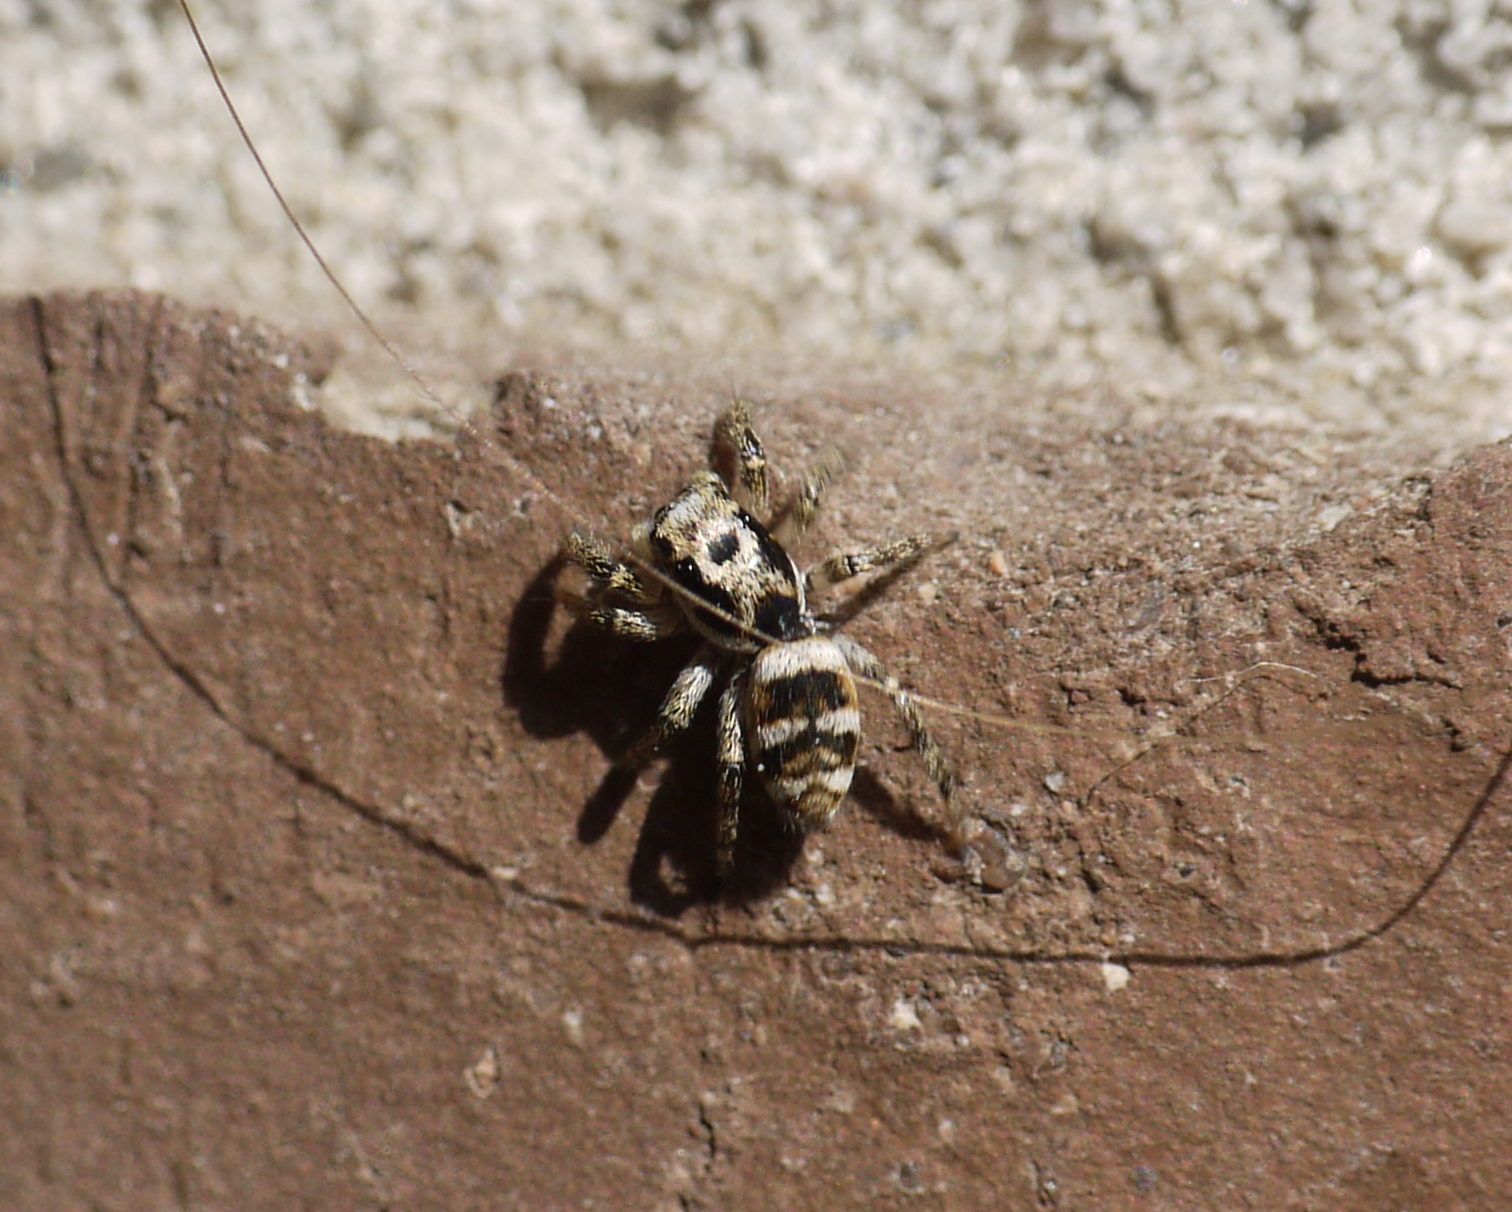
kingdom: Animalia
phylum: Arthropoda
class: Arachnida
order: Araneae
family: Salticidae
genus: Salticus
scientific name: Salticus scenicus
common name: Zebra jumper
